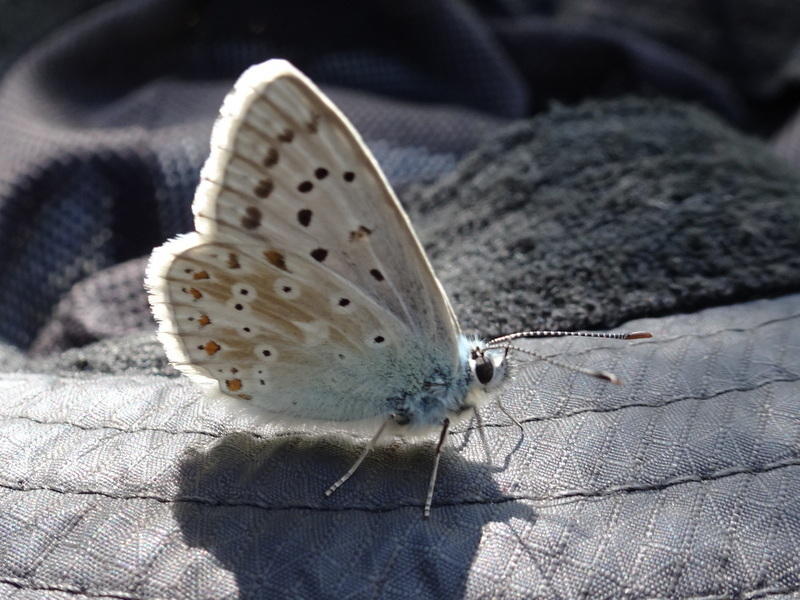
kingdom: Animalia
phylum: Arthropoda
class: Insecta
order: Lepidoptera
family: Lycaenidae
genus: Lysandra
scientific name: Lysandra coridon
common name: Chalkhill blue
